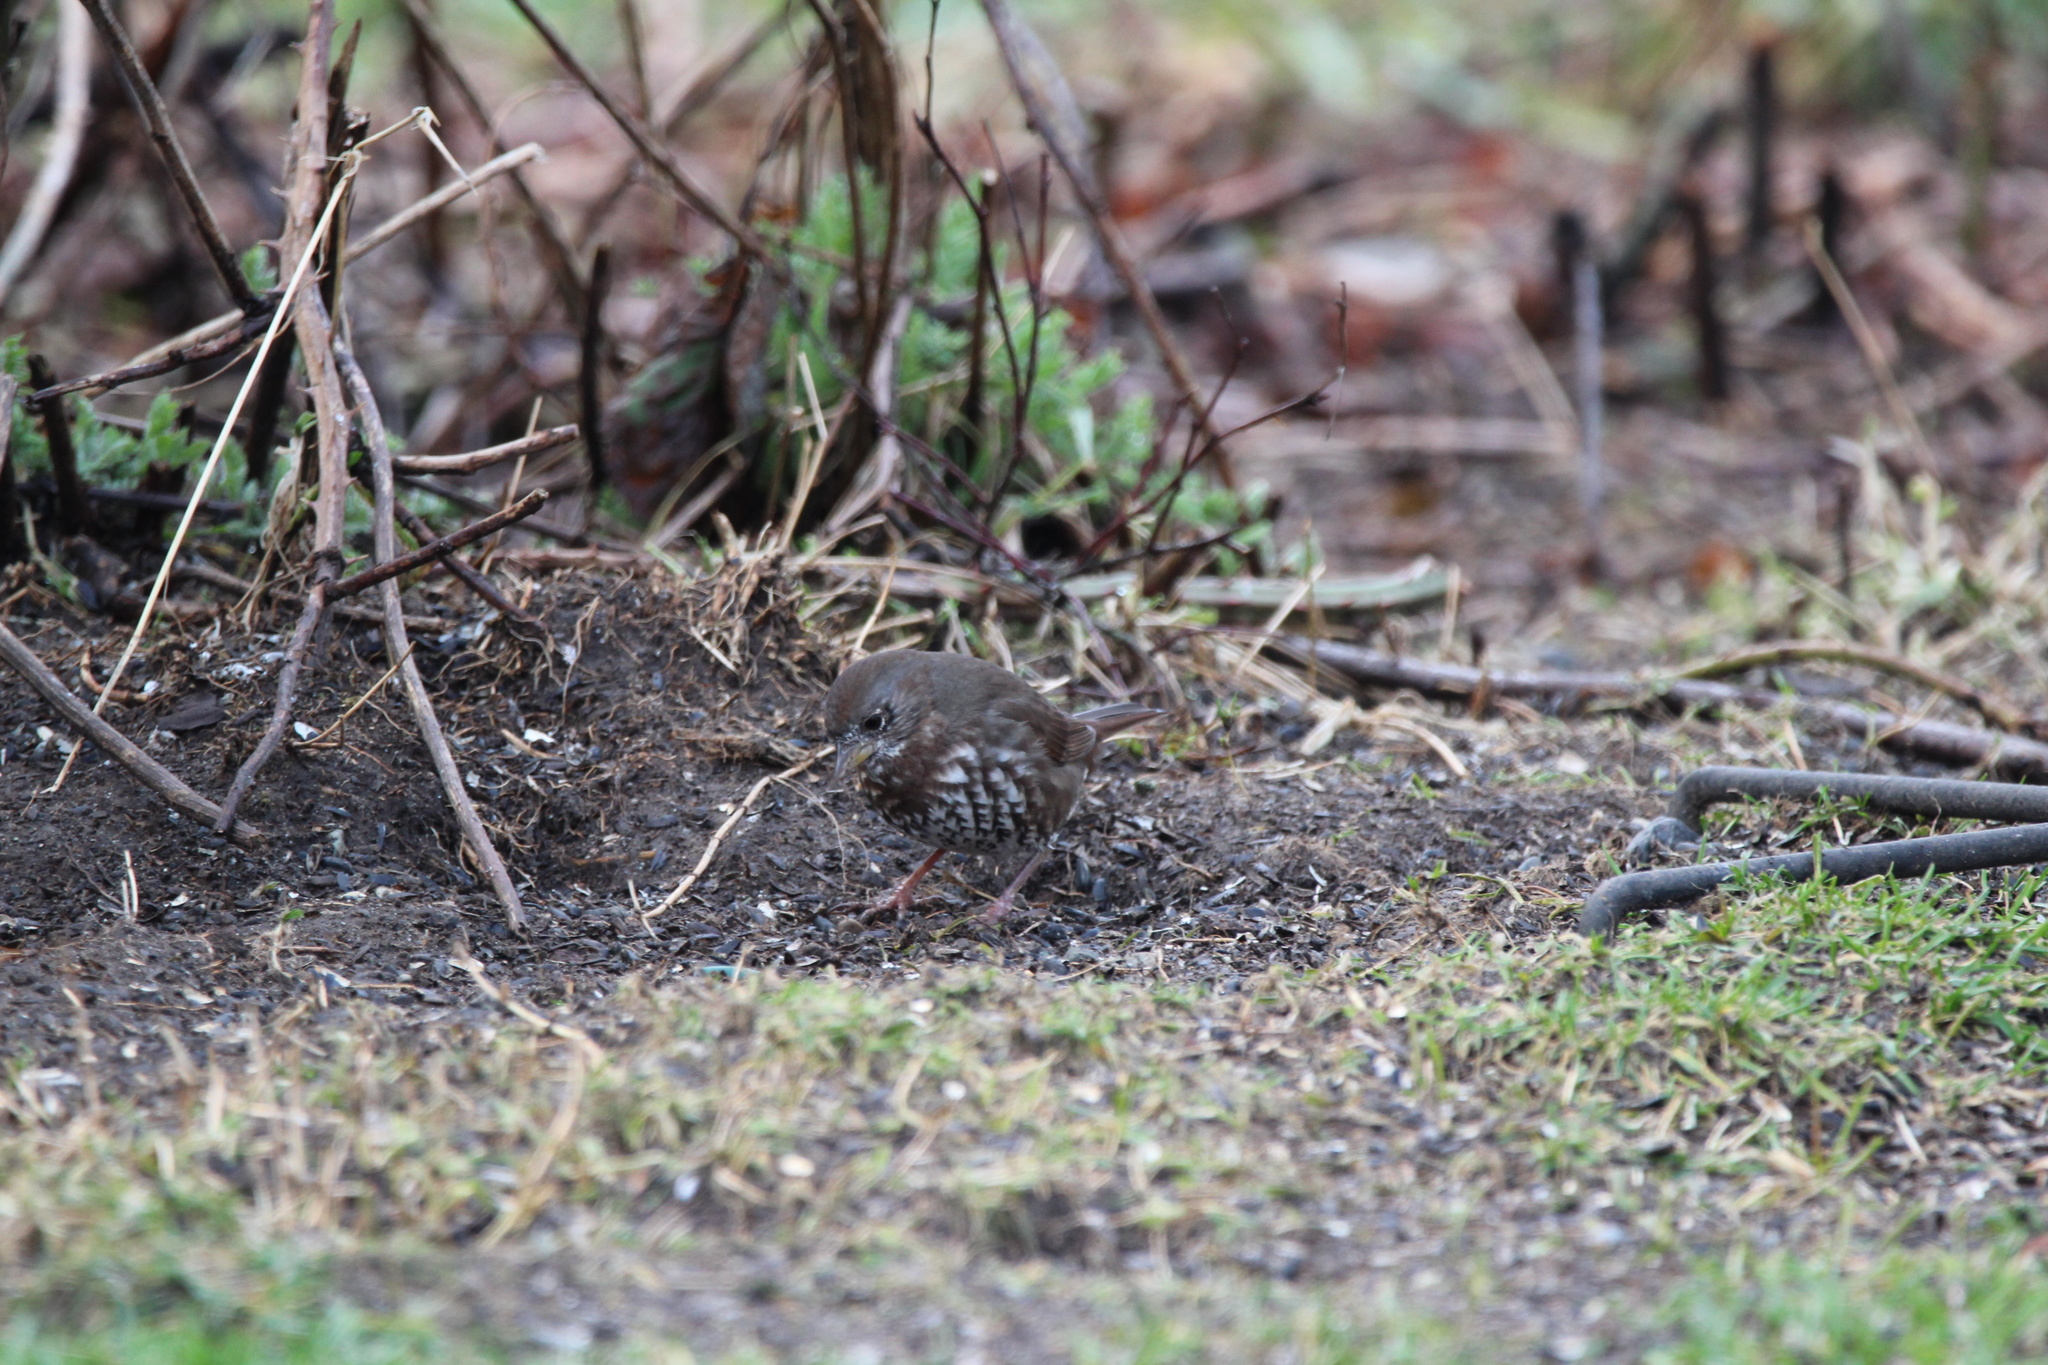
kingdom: Animalia
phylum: Chordata
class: Aves
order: Passeriformes
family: Passerellidae
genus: Passerella
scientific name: Passerella iliaca
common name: Fox sparrow
